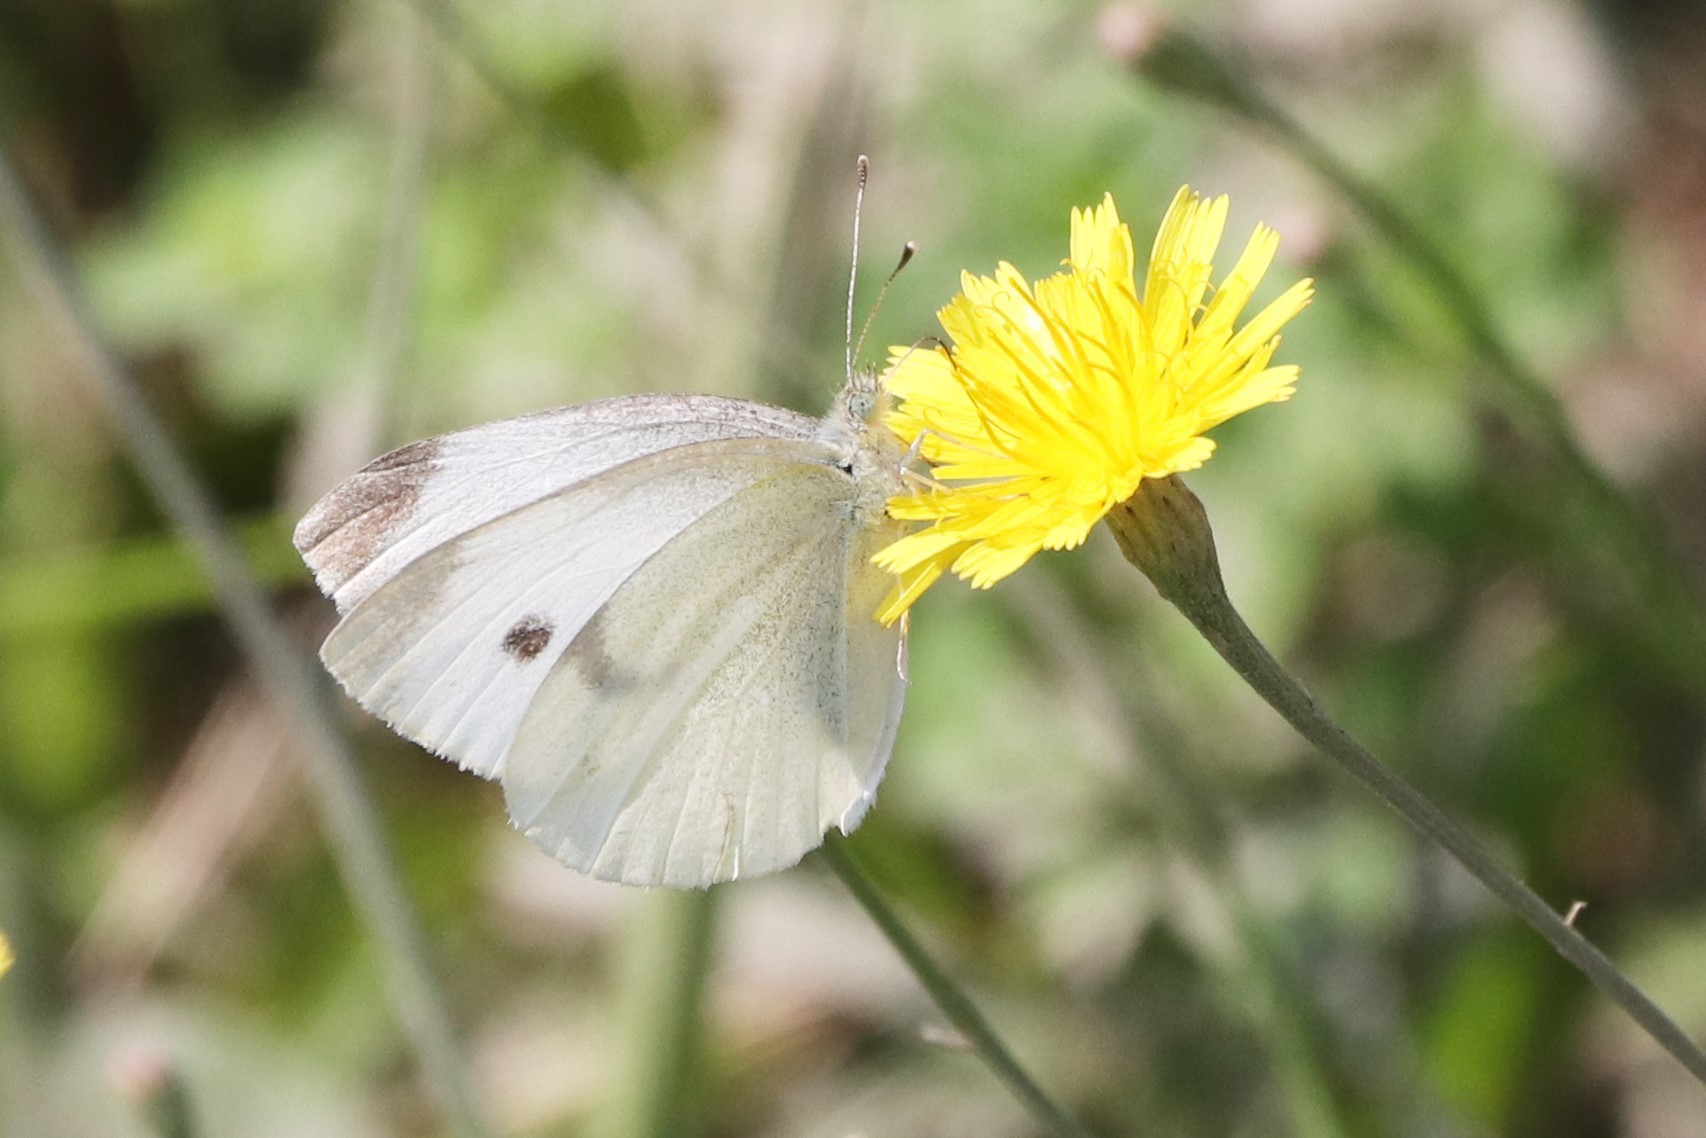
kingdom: Animalia
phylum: Arthropoda
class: Insecta
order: Lepidoptera
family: Pieridae
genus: Pieris
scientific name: Pieris rapae
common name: Small white
